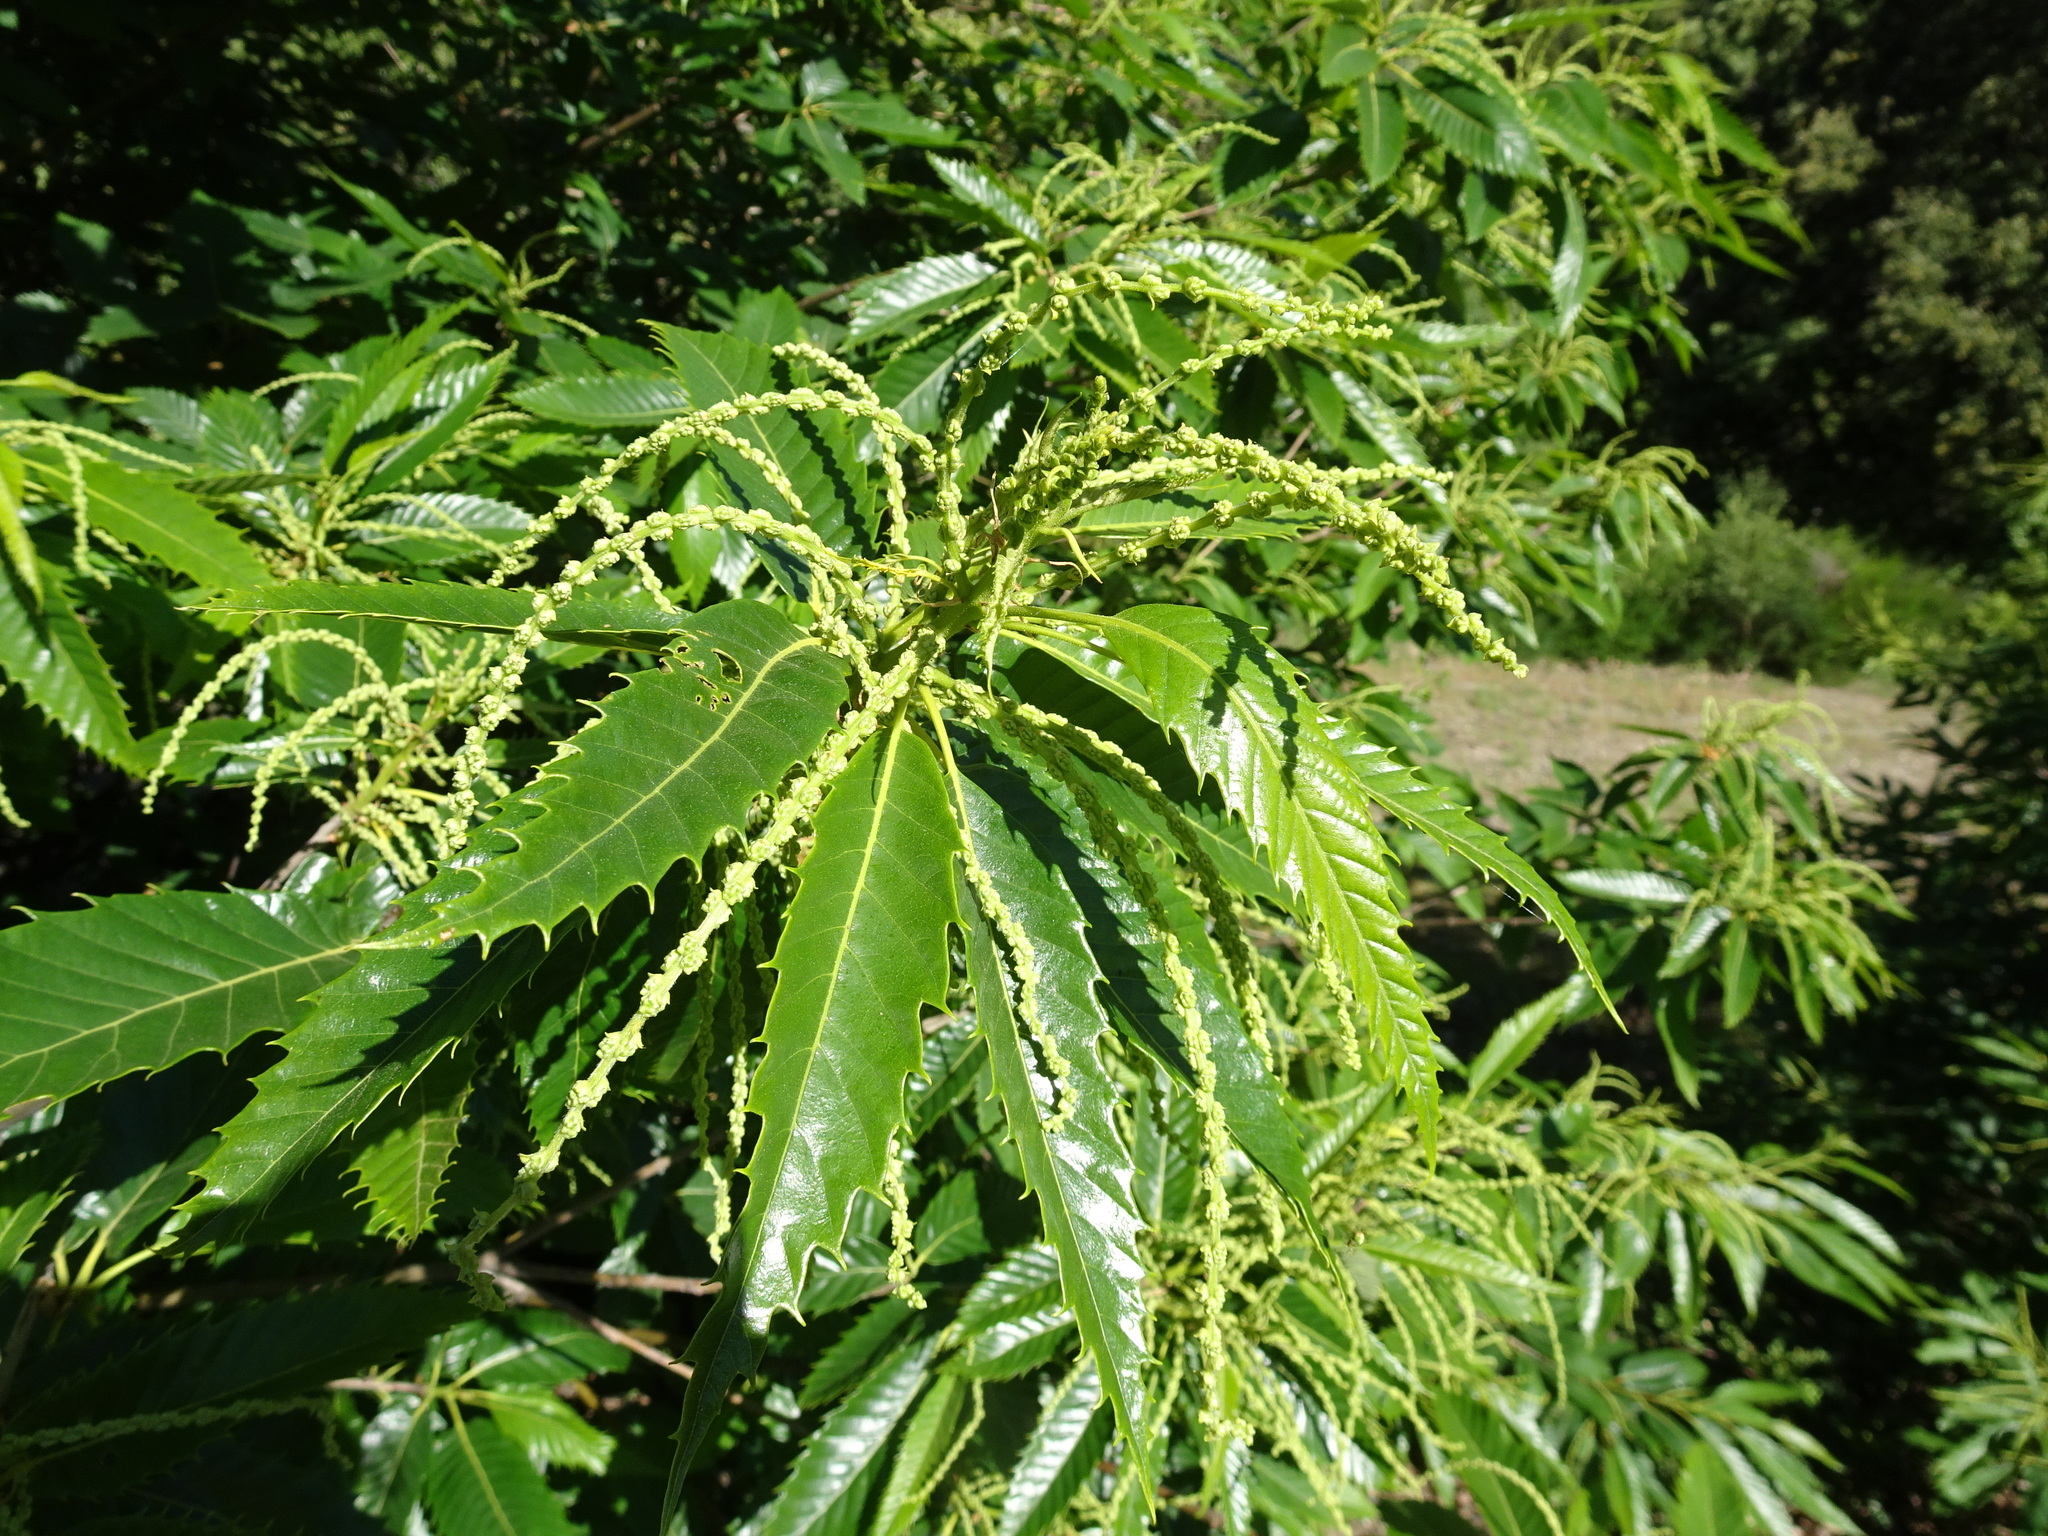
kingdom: Plantae
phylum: Tracheophyta
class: Magnoliopsida
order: Fagales
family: Fagaceae
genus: Castanea
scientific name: Castanea sativa
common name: Sweet chestnut
